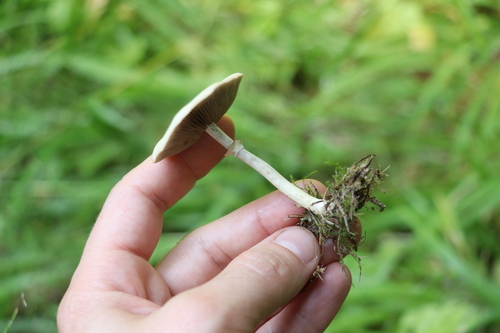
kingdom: Fungi
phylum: Basidiomycota
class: Agaricomycetes
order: Agaricales
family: Strophariaceae
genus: Agrocybe
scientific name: Agrocybe praecox
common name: Spring fieldcap
